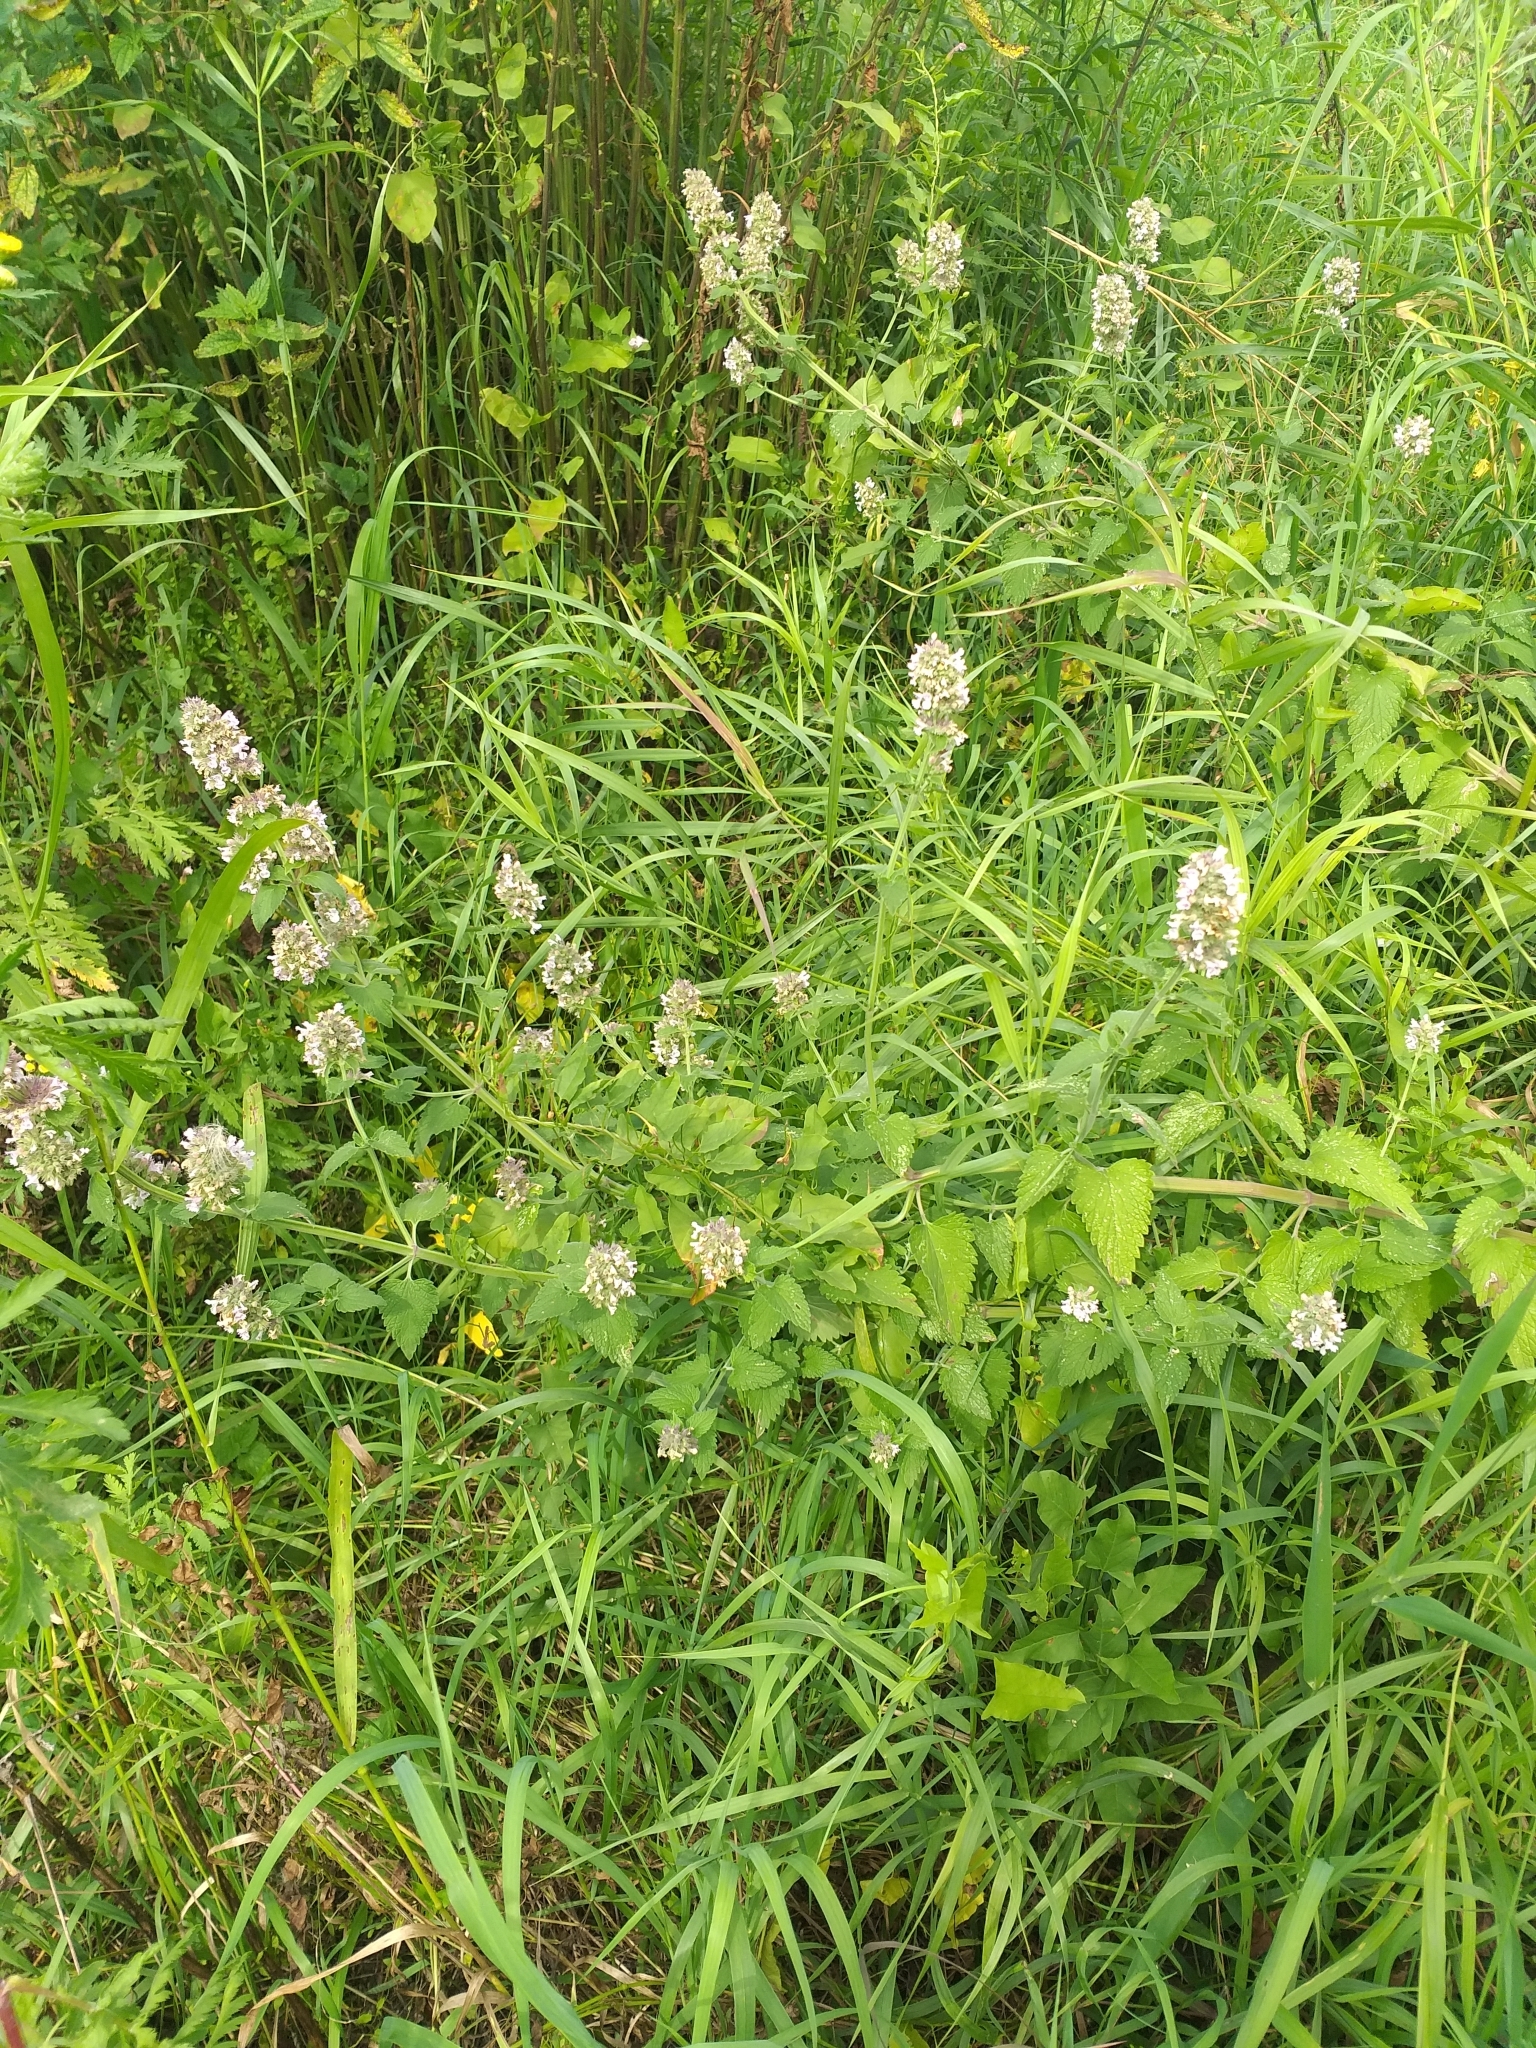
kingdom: Plantae
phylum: Tracheophyta
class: Magnoliopsida
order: Lamiales
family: Lamiaceae
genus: Nepeta
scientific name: Nepeta cataria
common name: Catnip
